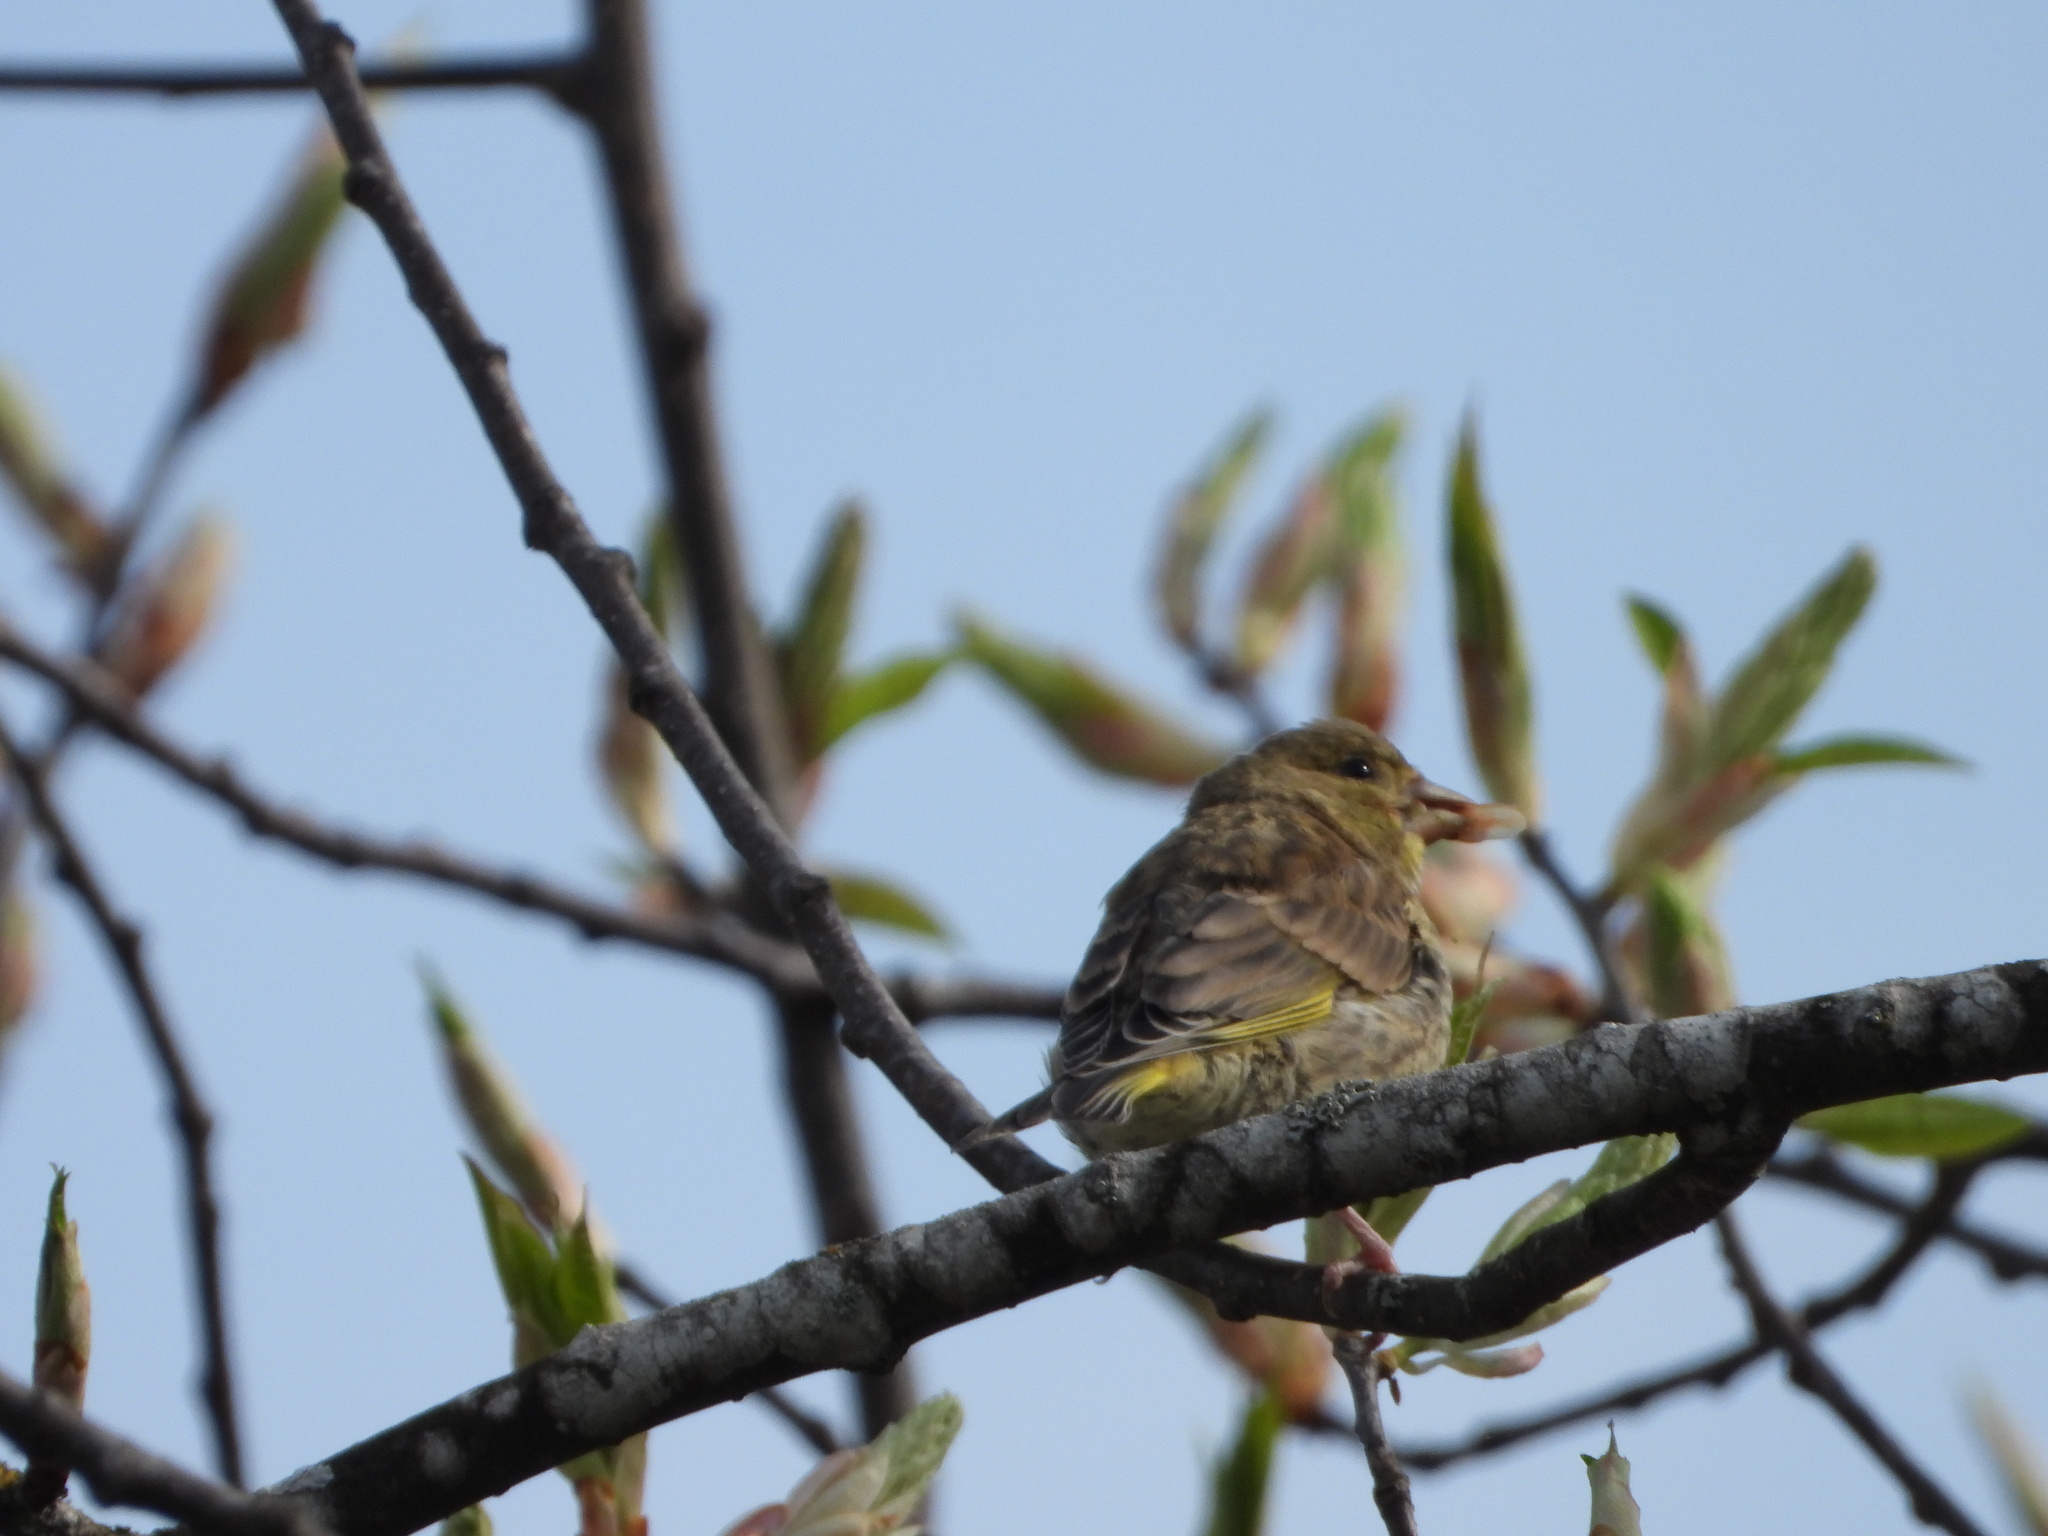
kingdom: Plantae
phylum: Tracheophyta
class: Liliopsida
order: Poales
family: Poaceae
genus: Chloris
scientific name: Chloris chloris
